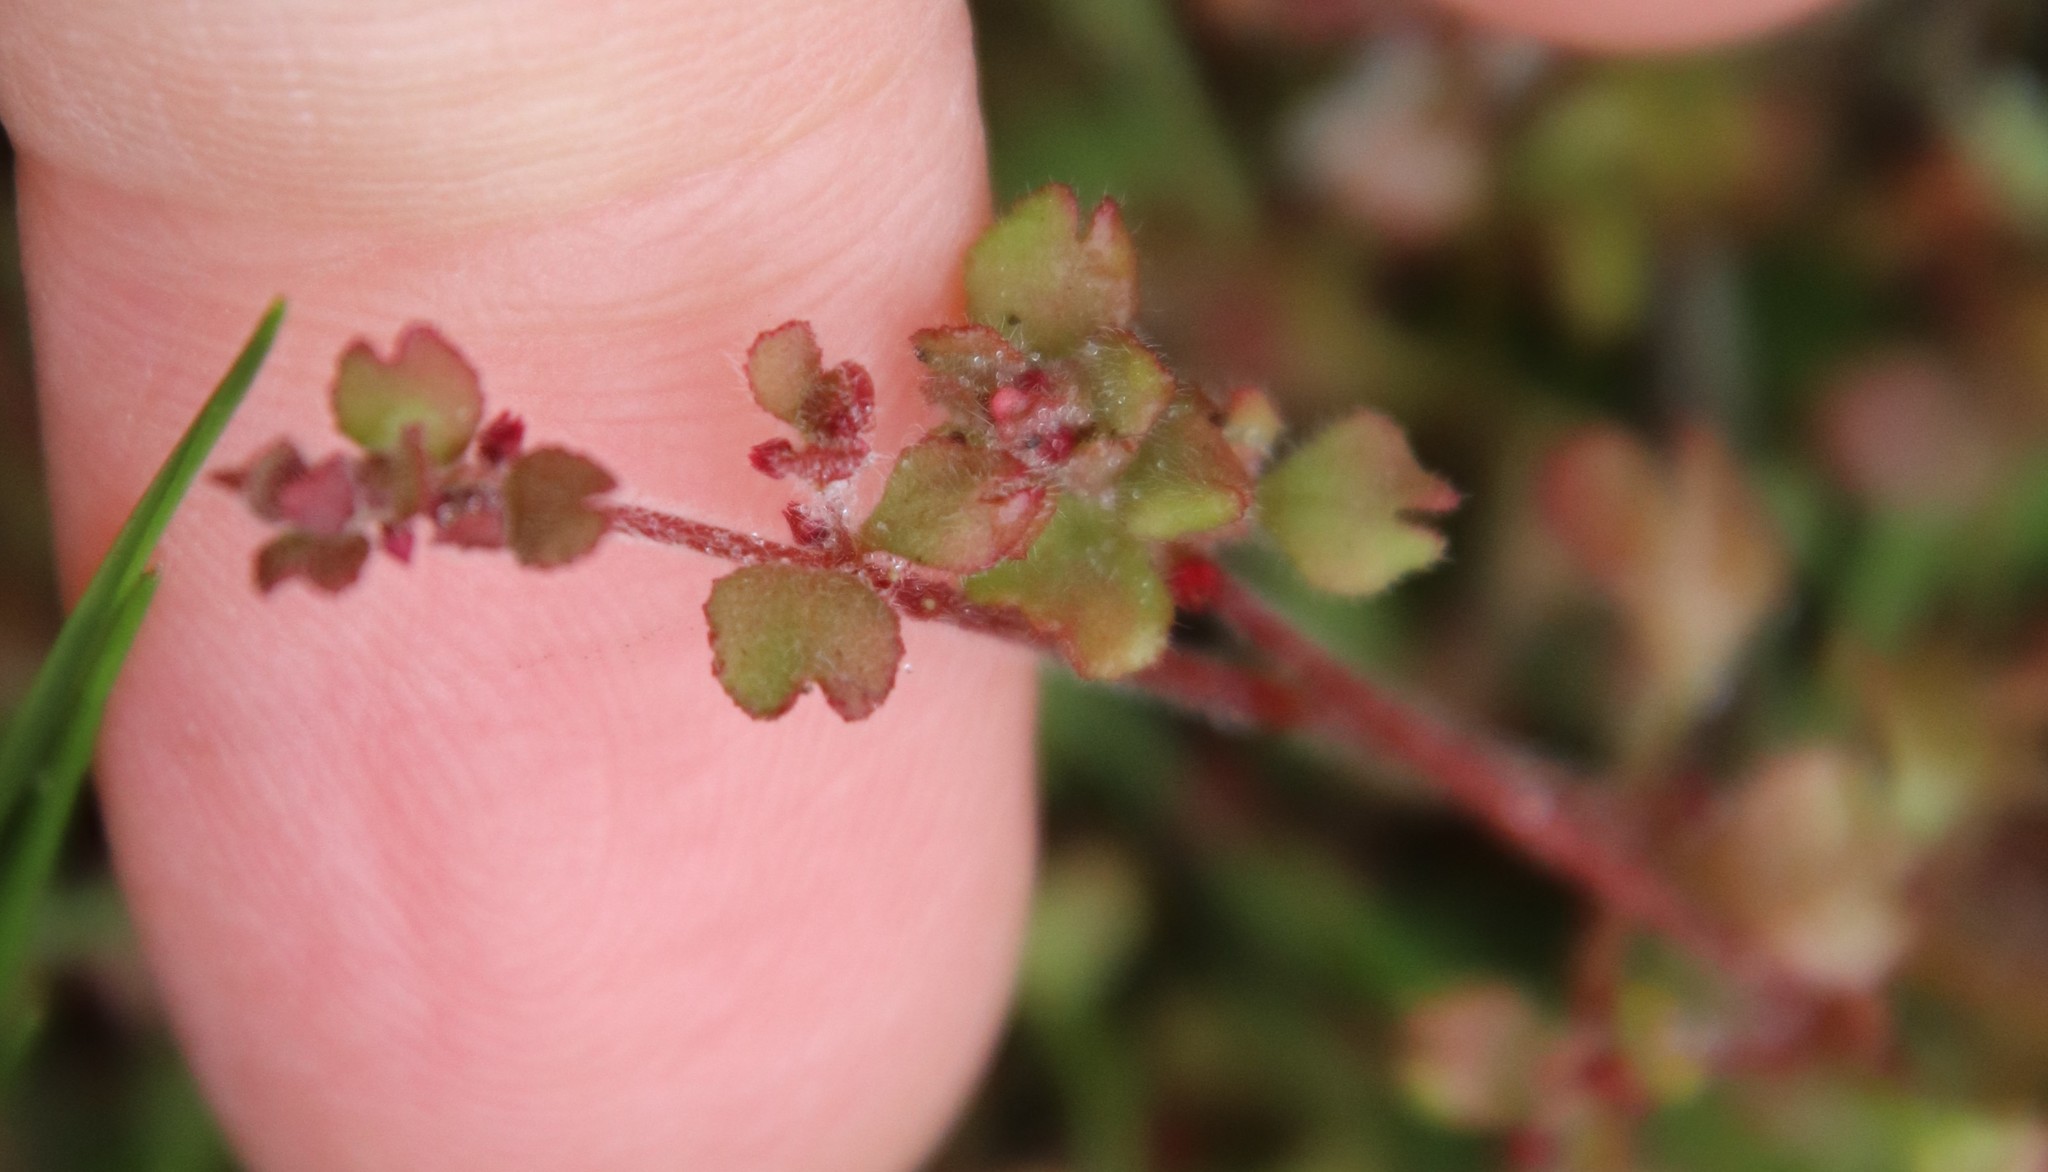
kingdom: Plantae
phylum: Tracheophyta
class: Magnoliopsida
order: Caryophyllales
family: Polygonaceae
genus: Pterostegia
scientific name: Pterostegia drymarioides
